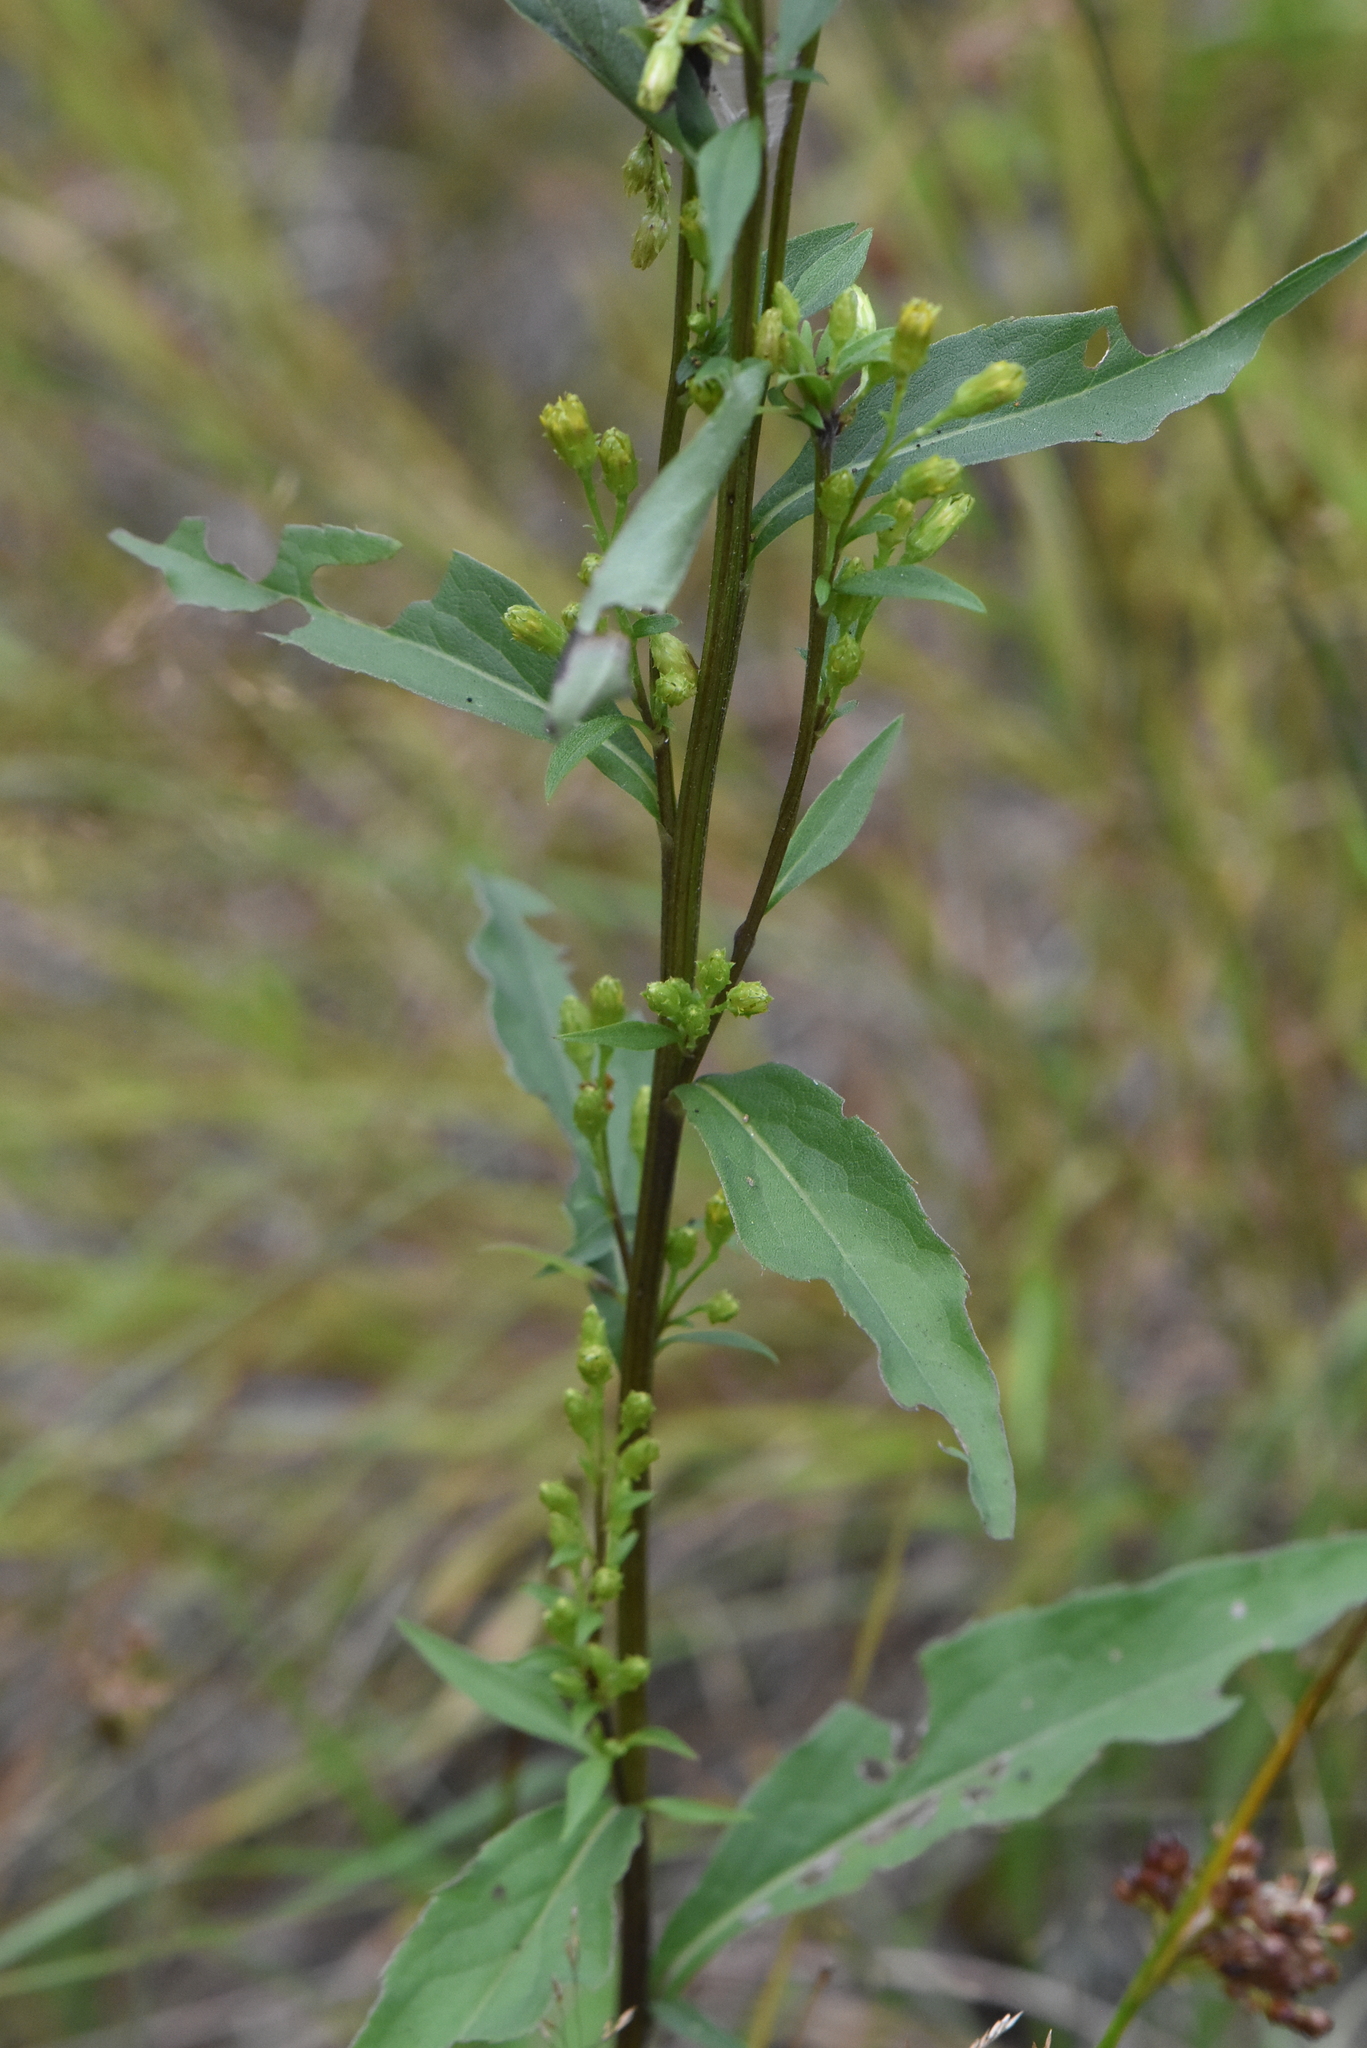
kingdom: Plantae
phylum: Tracheophyta
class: Magnoliopsida
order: Asterales
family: Asteraceae
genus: Solidago
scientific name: Solidago virgaurea
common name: Goldenrod
